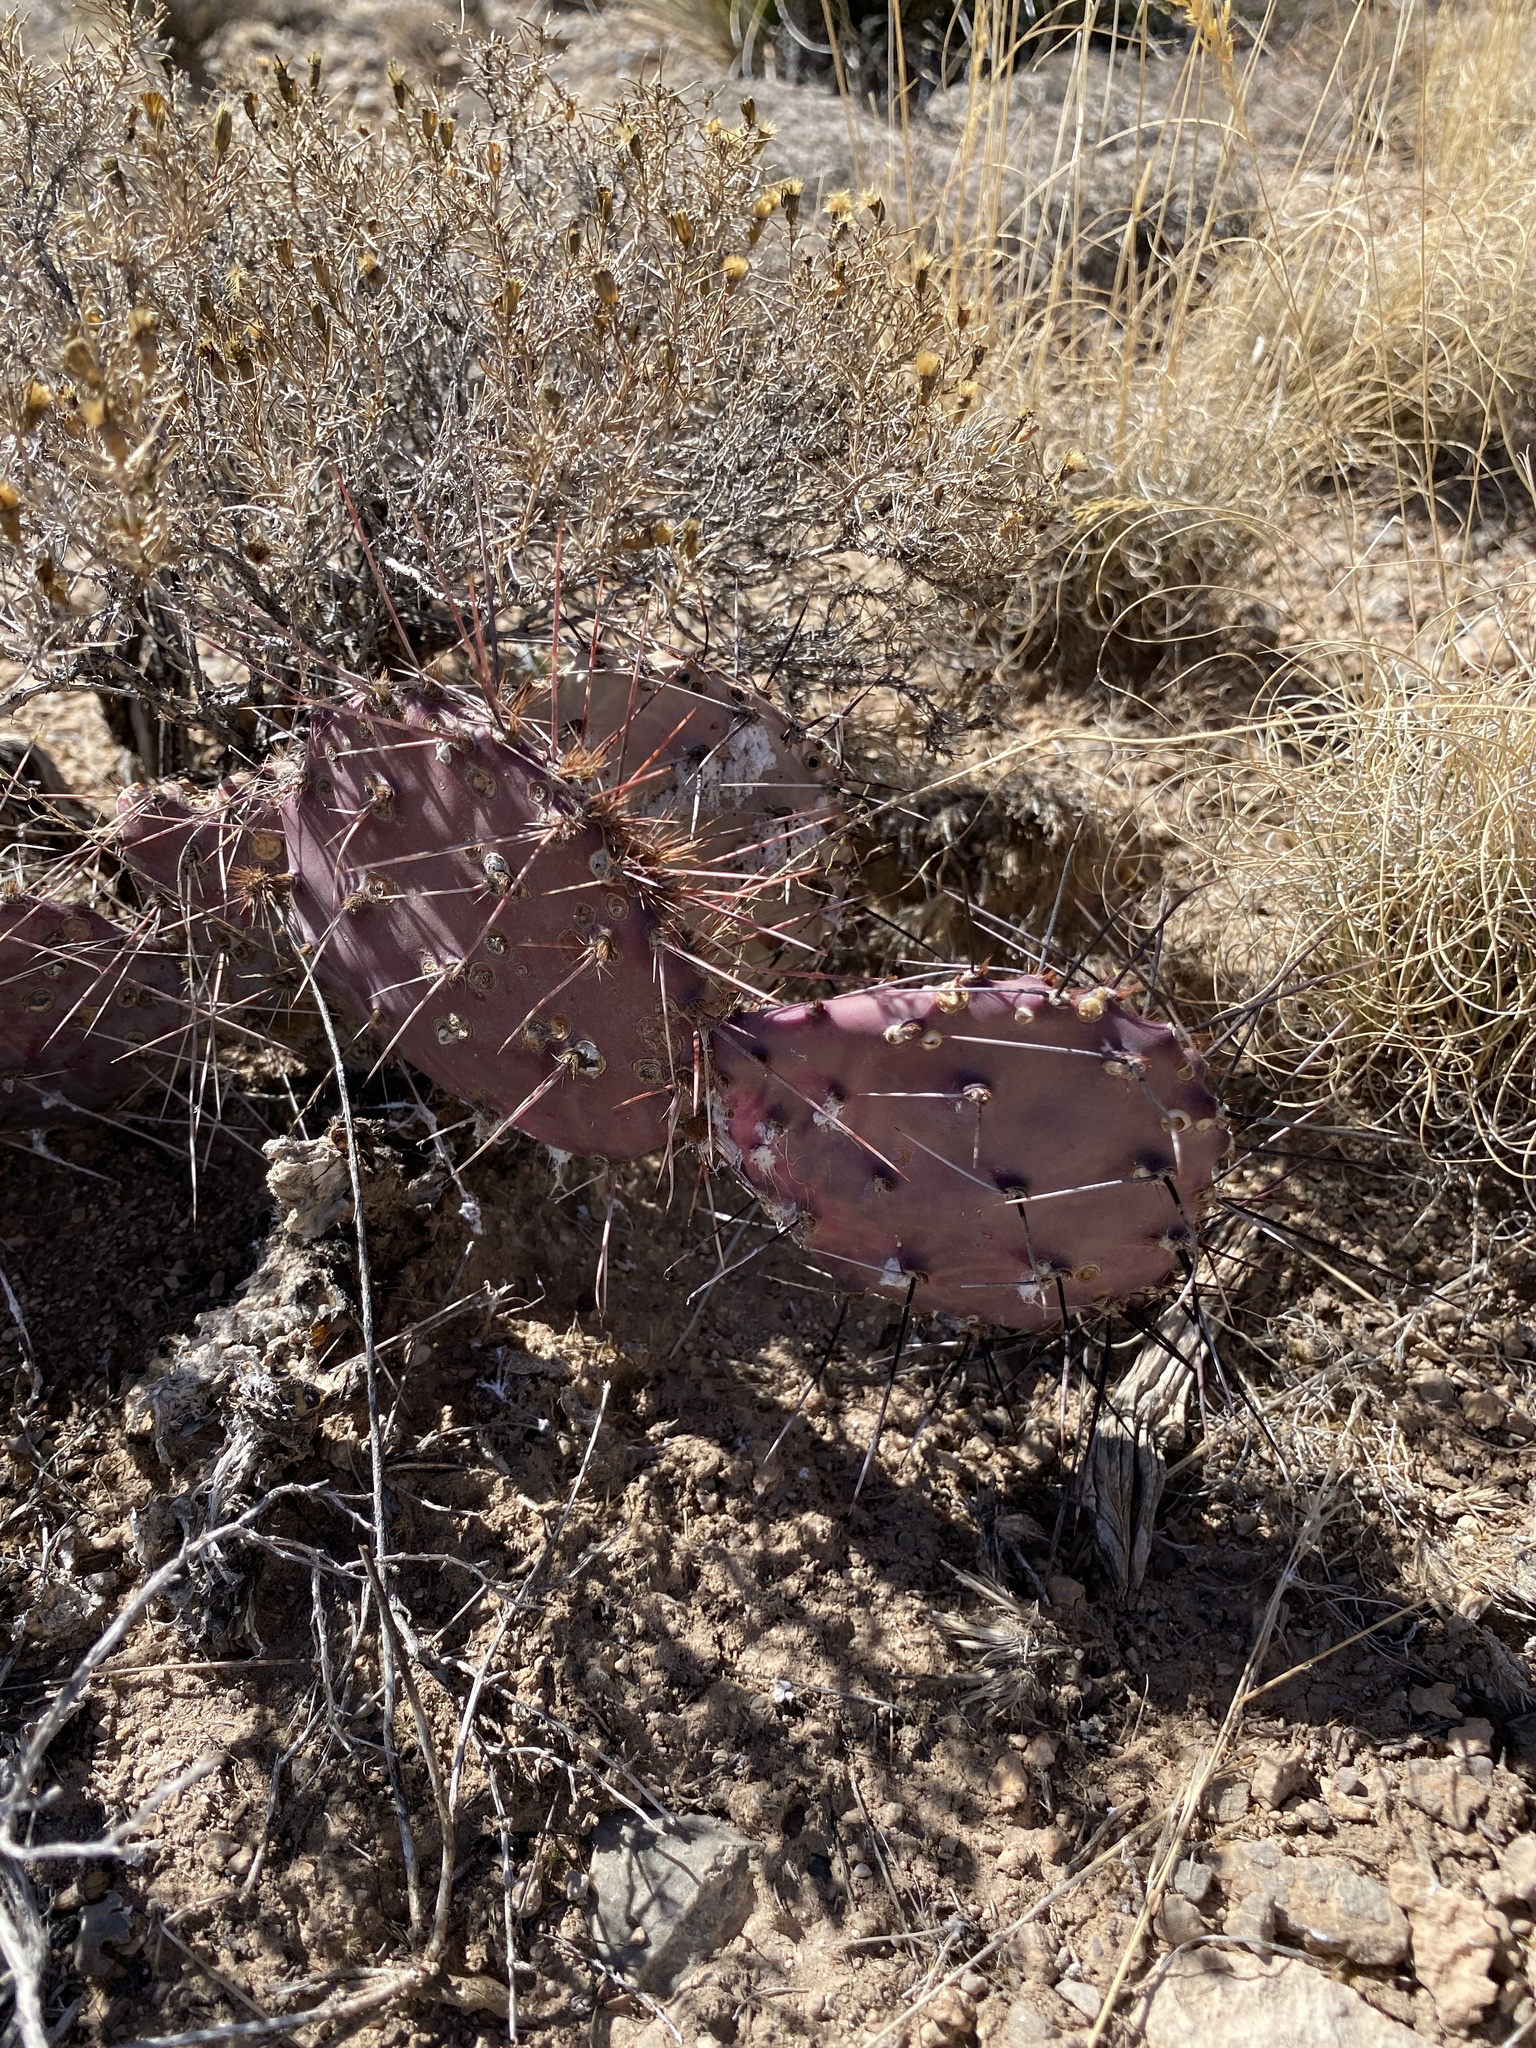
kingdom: Plantae
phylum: Tracheophyta
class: Magnoliopsida
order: Caryophyllales
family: Cactaceae
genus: Opuntia
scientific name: Opuntia macrocentra
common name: Purple prickly-pear
